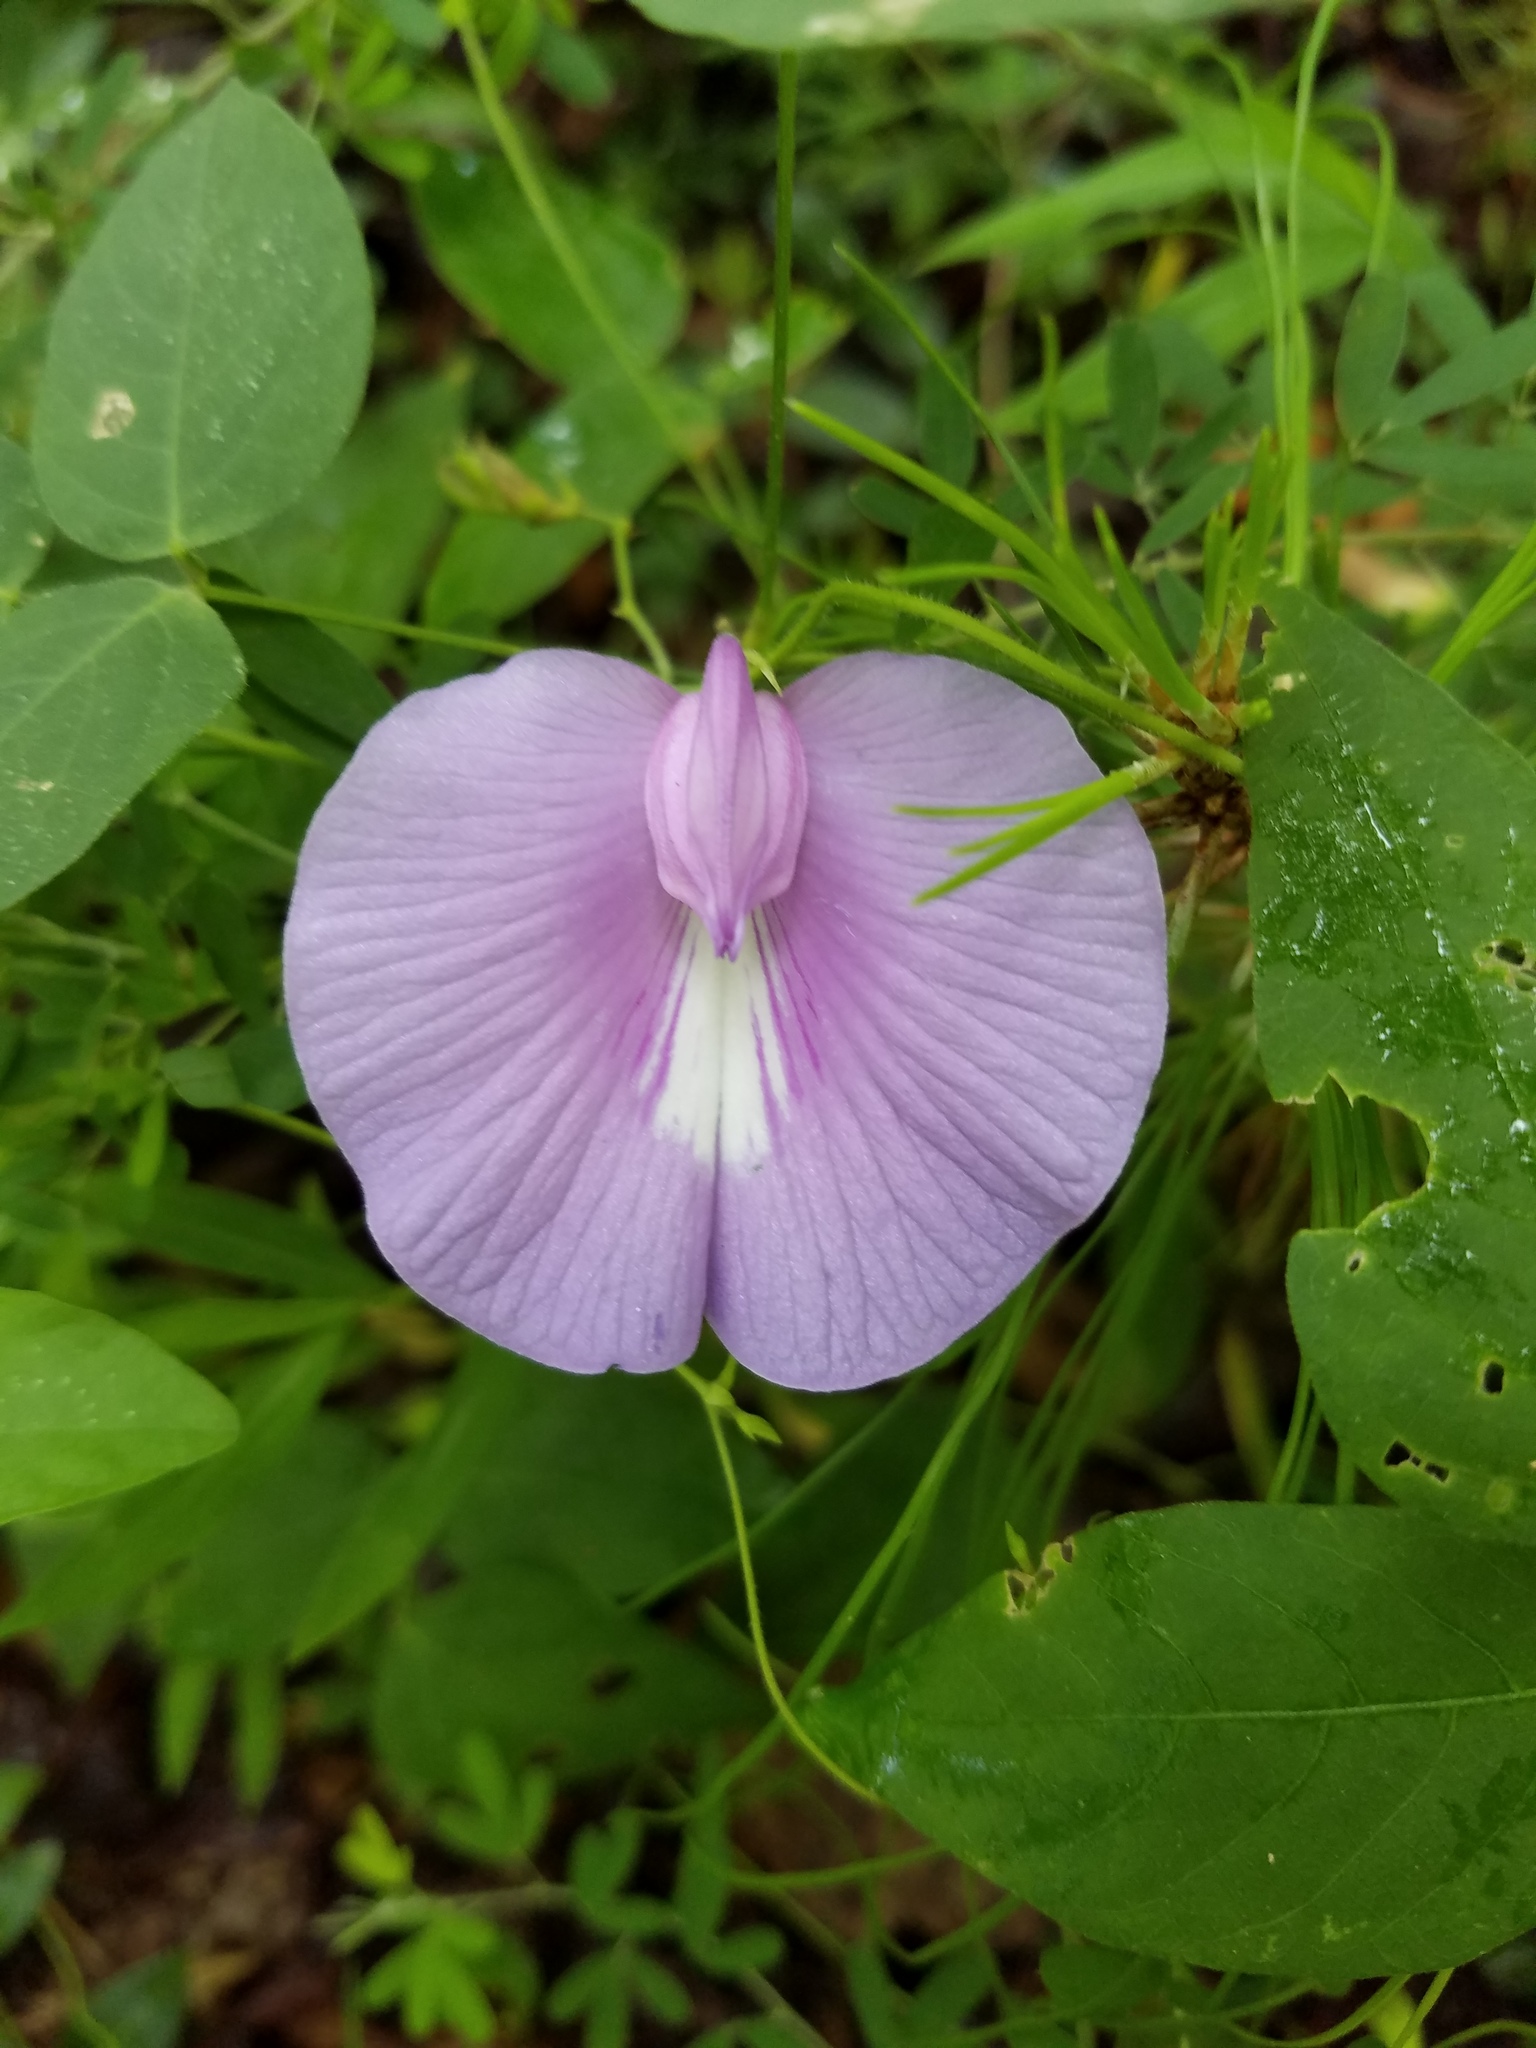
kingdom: Plantae
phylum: Tracheophyta
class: Magnoliopsida
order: Fabales
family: Fabaceae
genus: Centrosema
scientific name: Centrosema virginianum
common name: Butterfly-pea
